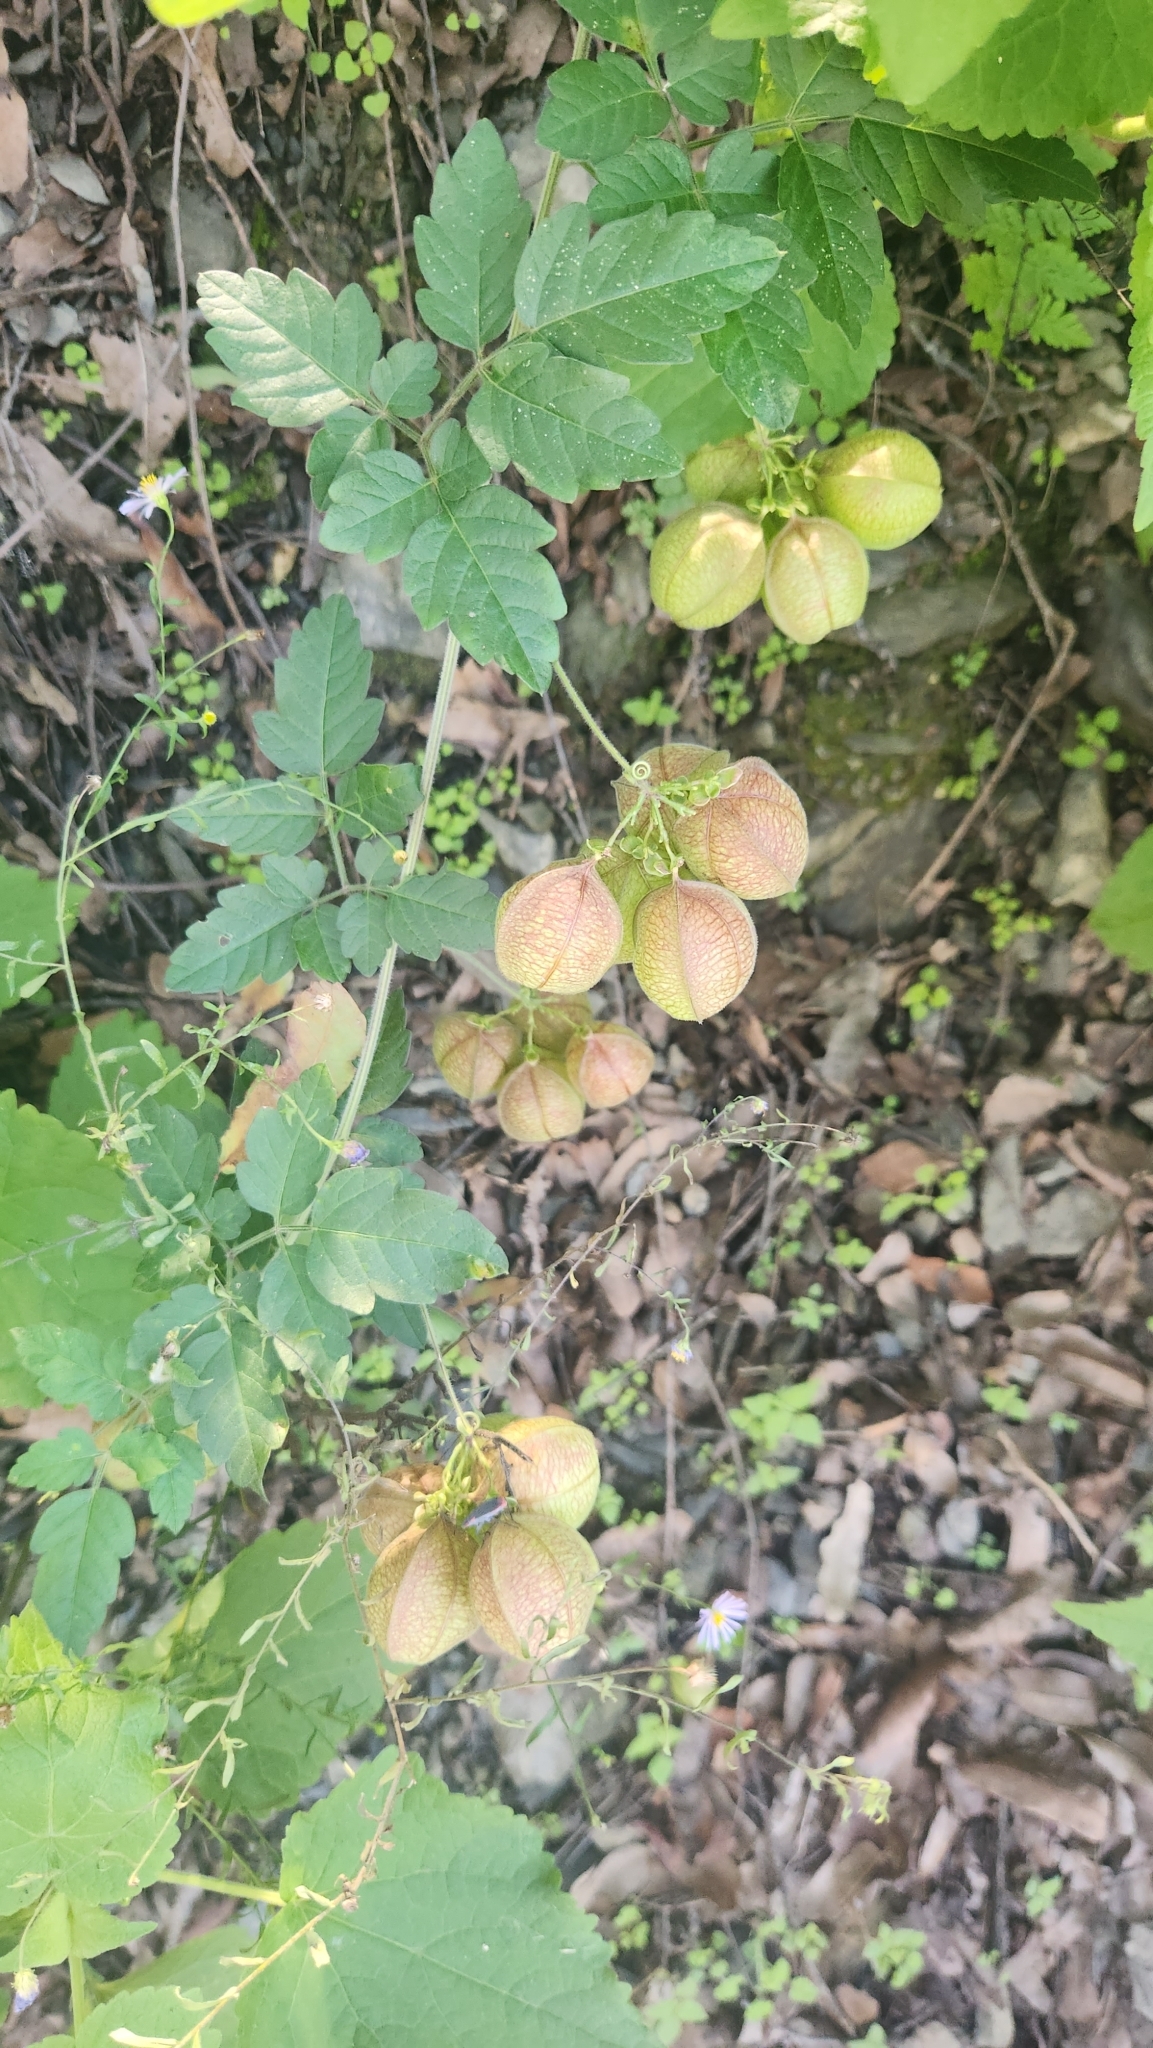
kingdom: Plantae
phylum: Tracheophyta
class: Magnoliopsida
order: Sapindales
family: Sapindaceae
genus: Cardiospermum
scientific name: Cardiospermum halicacabum
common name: Balloon vine
